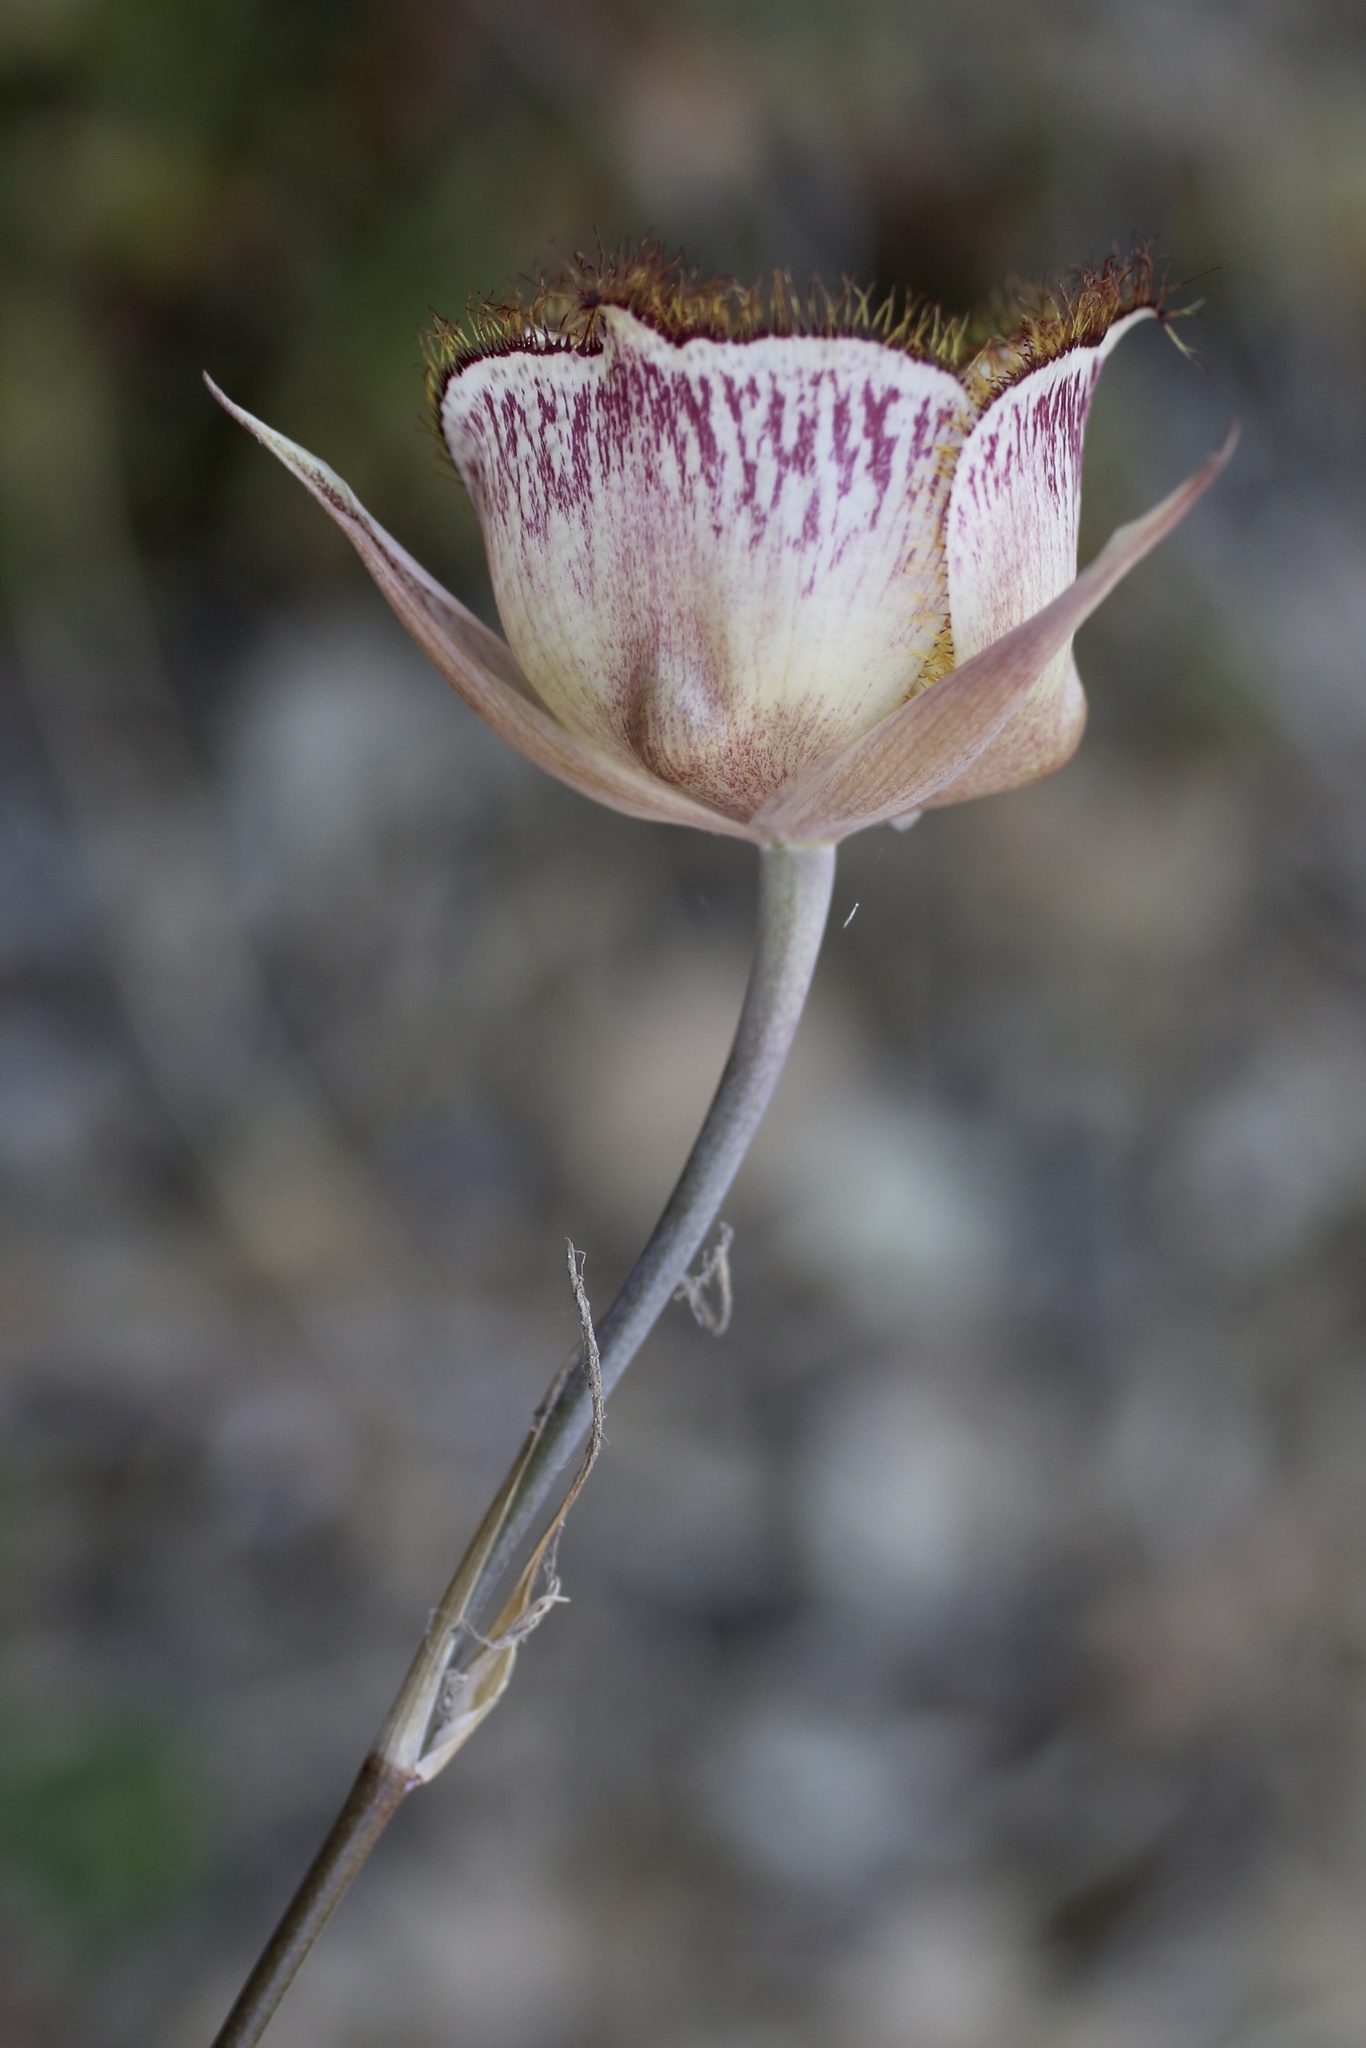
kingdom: Plantae
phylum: Tracheophyta
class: Liliopsida
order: Liliales
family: Liliaceae
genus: Calochortus
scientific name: Calochortus fimbriatus
